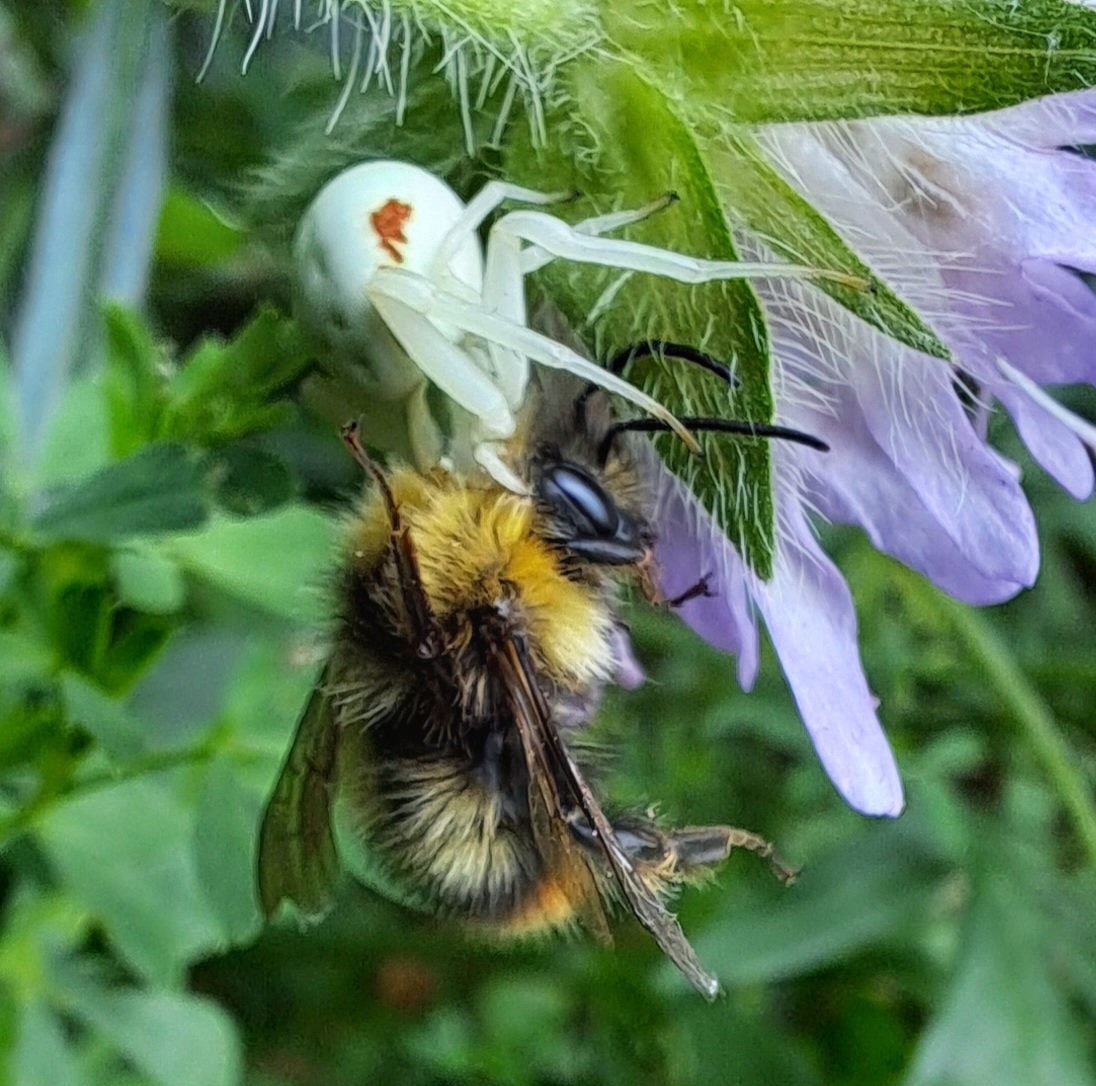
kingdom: Animalia
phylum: Arthropoda
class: Arachnida
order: Araneae
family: Thomisidae
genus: Misumena
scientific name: Misumena vatia
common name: Goldenrod crab spider
